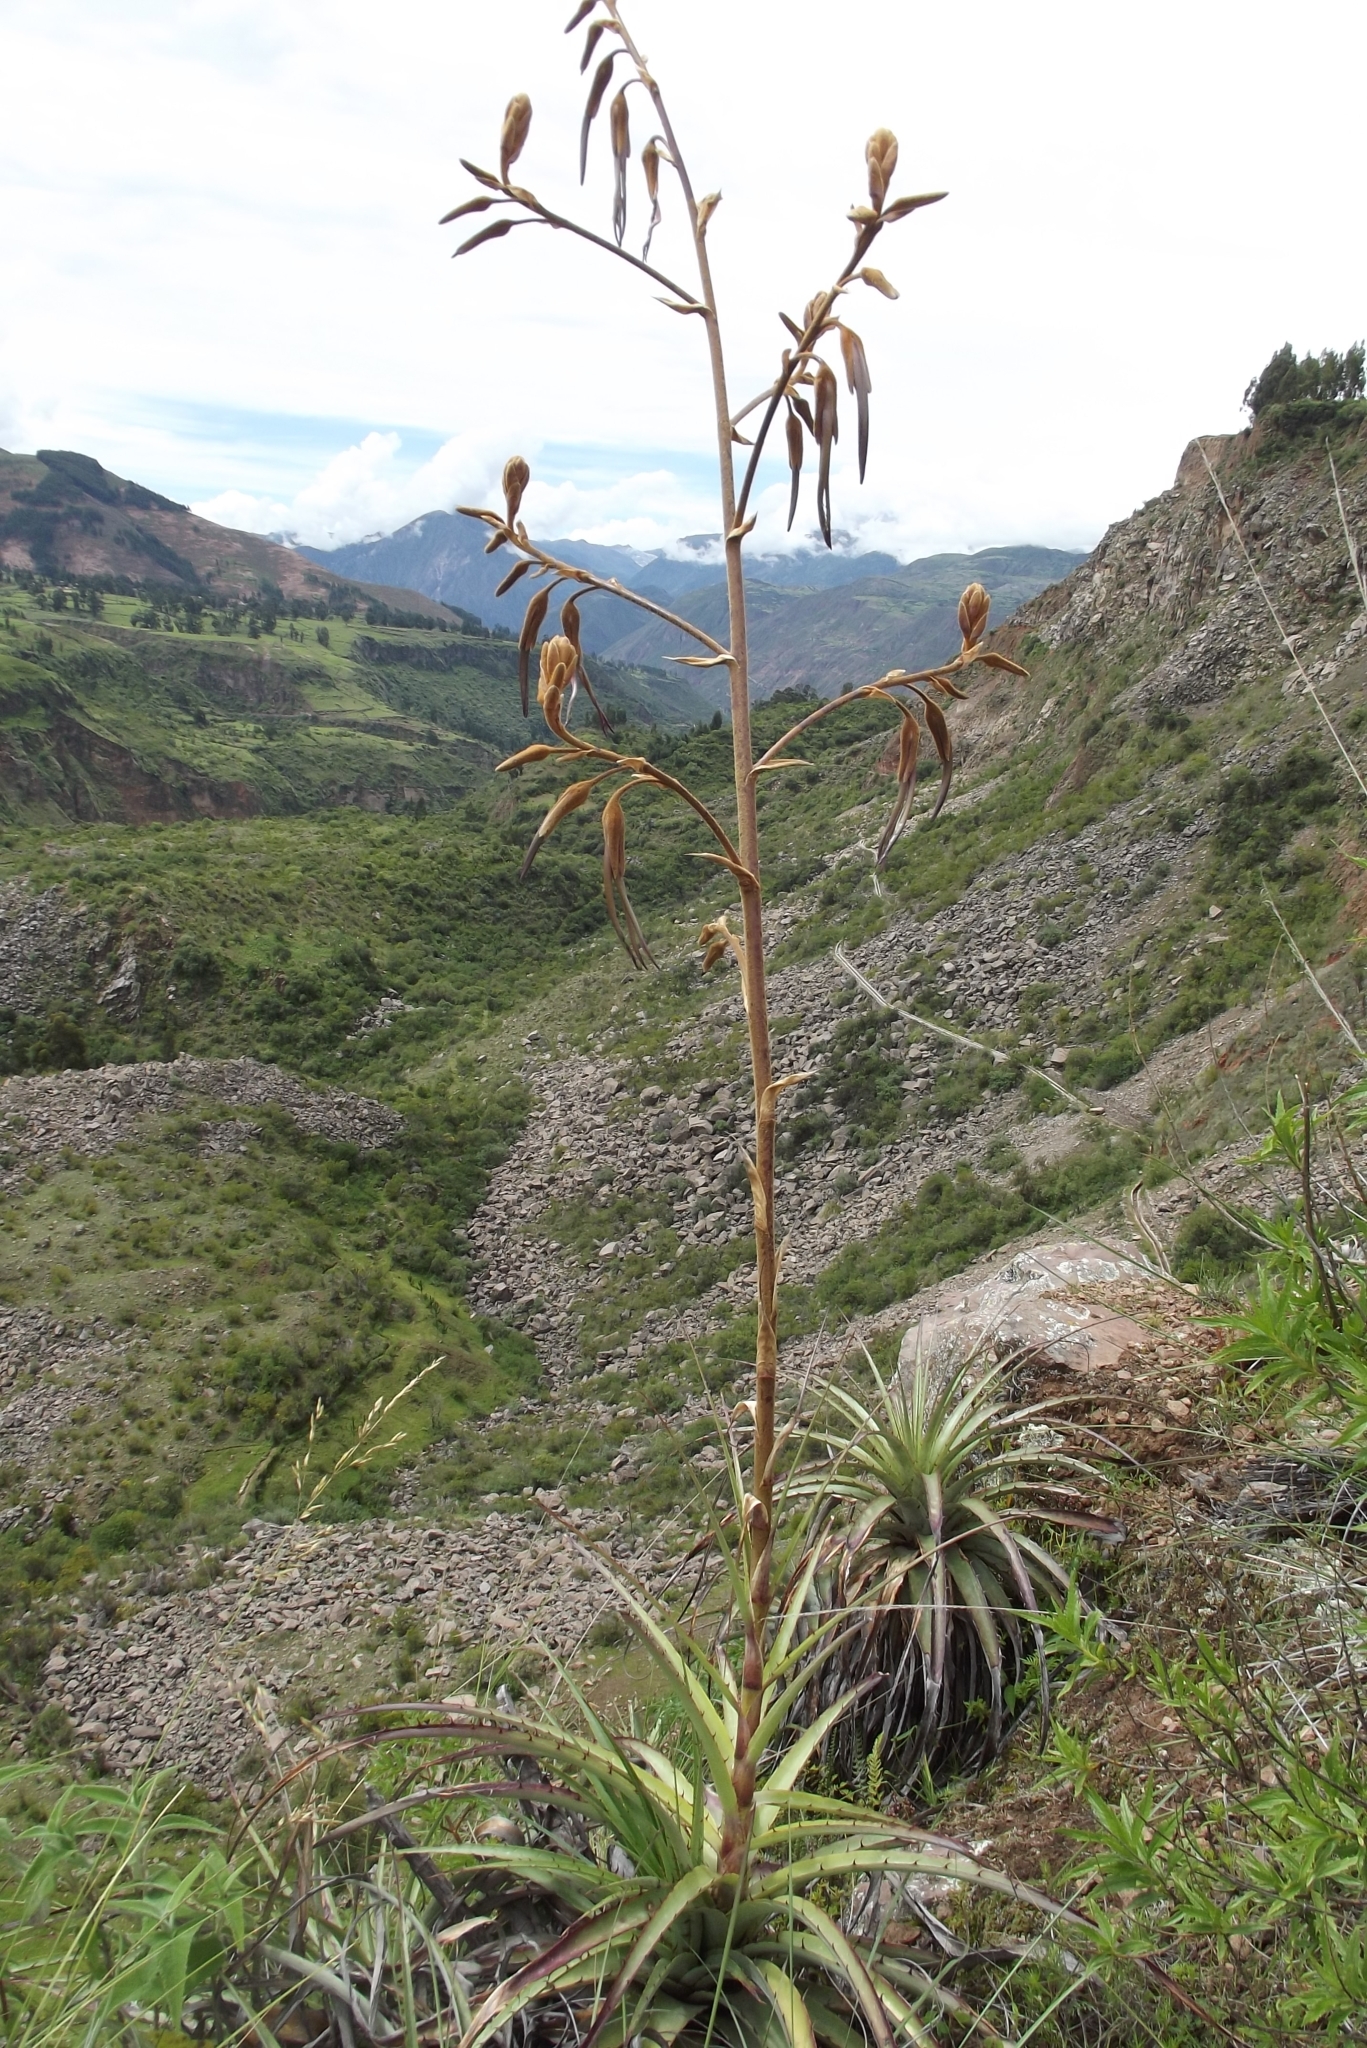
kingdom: Plantae
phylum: Tracheophyta
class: Liliopsida
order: Poales
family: Bromeliaceae
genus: Puya
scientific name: Puya ferruginea
